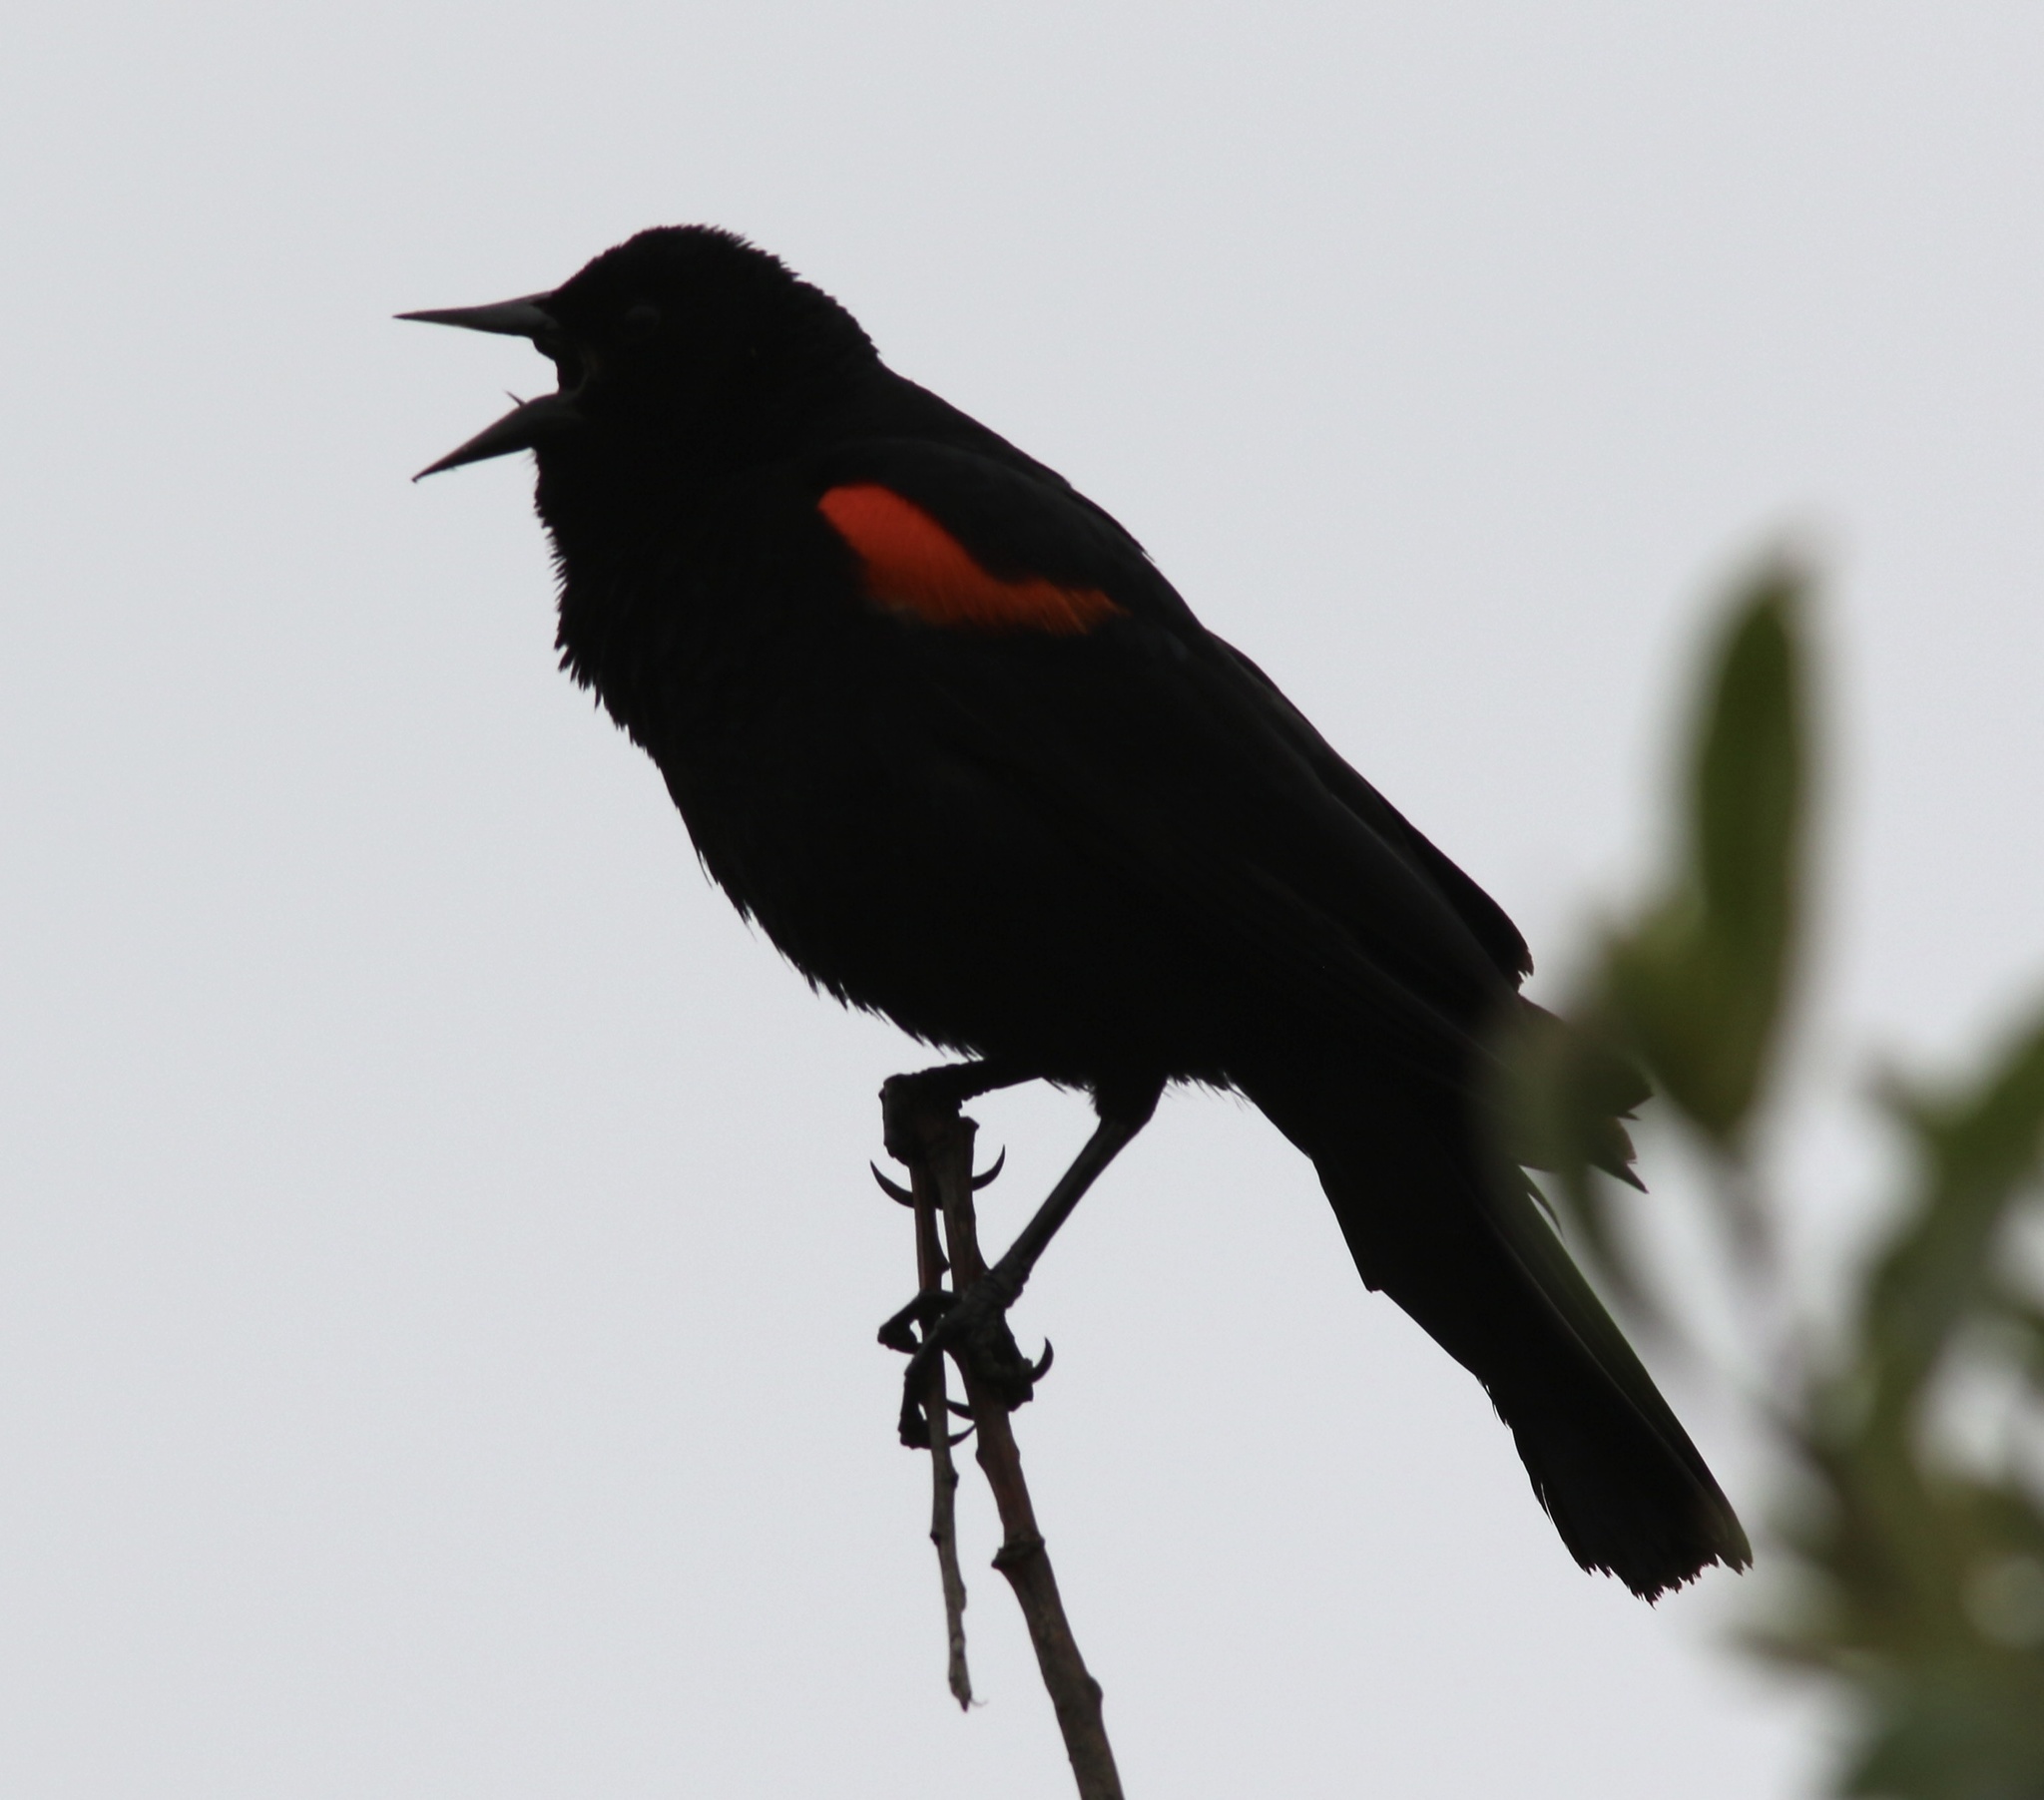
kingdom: Animalia
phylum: Chordata
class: Aves
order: Passeriformes
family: Icteridae
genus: Agelaius
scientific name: Agelaius phoeniceus
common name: Red-winged blackbird
